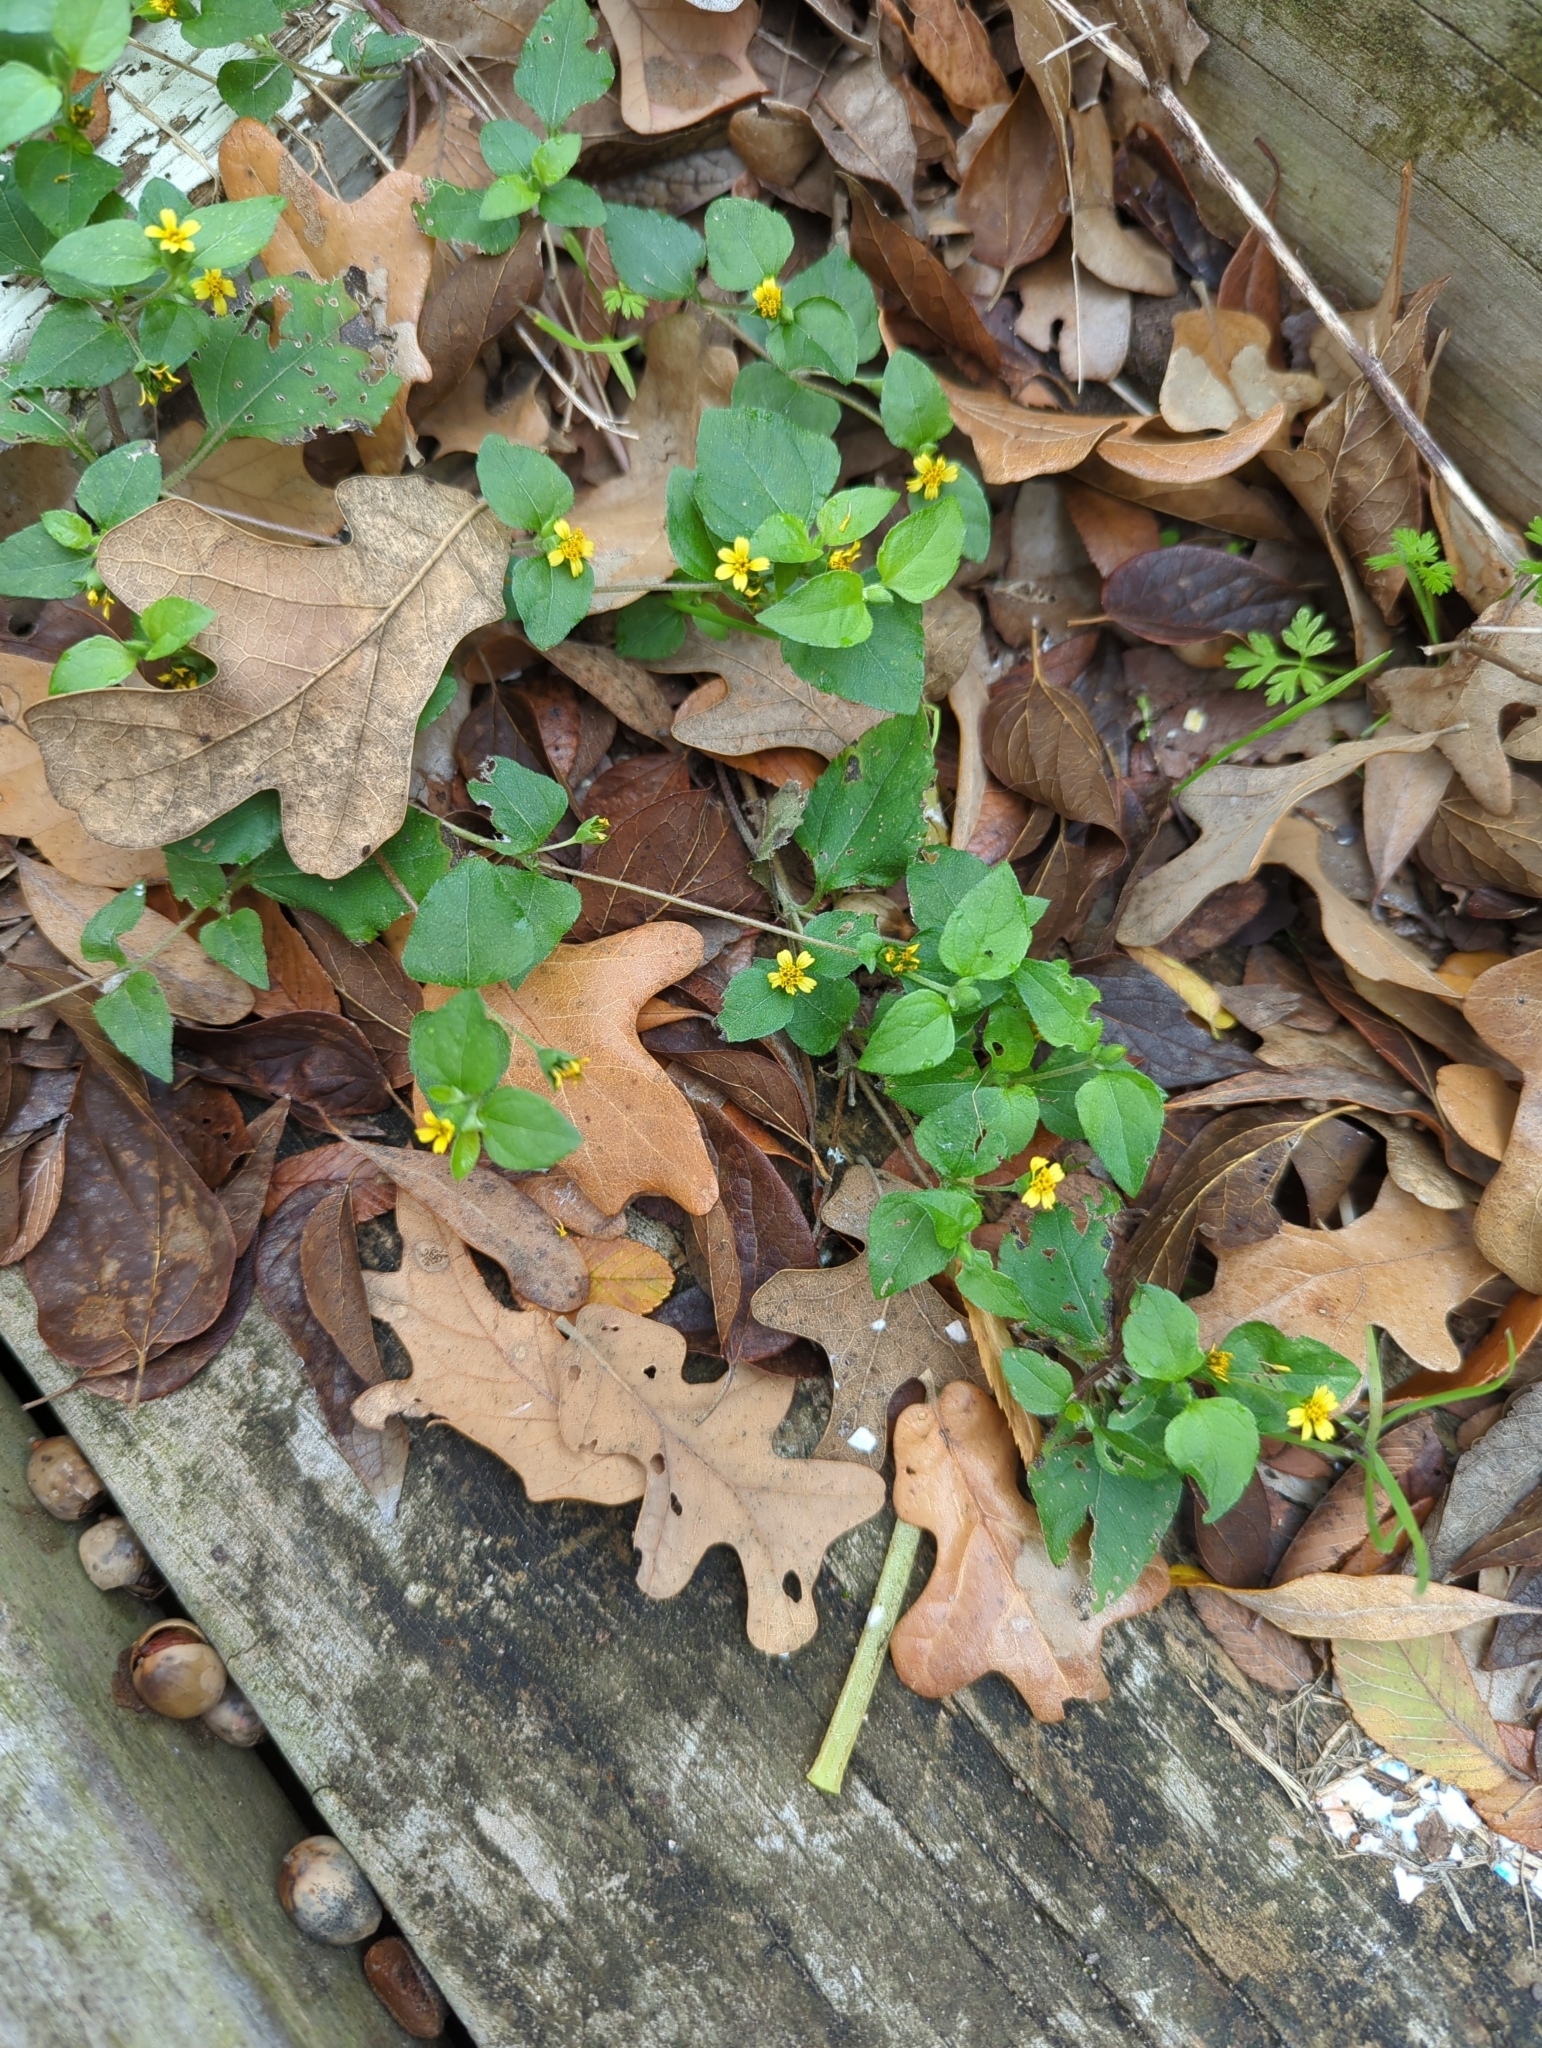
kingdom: Plantae
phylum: Tracheophyta
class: Magnoliopsida
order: Asterales
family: Asteraceae
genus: Calyptocarpus
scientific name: Calyptocarpus vialis
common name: Straggler daisy
